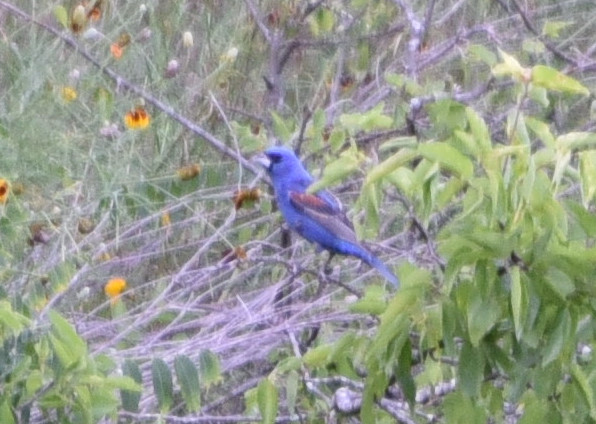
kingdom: Animalia
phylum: Chordata
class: Aves
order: Passeriformes
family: Cardinalidae
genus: Passerina
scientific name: Passerina caerulea
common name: Blue grosbeak
